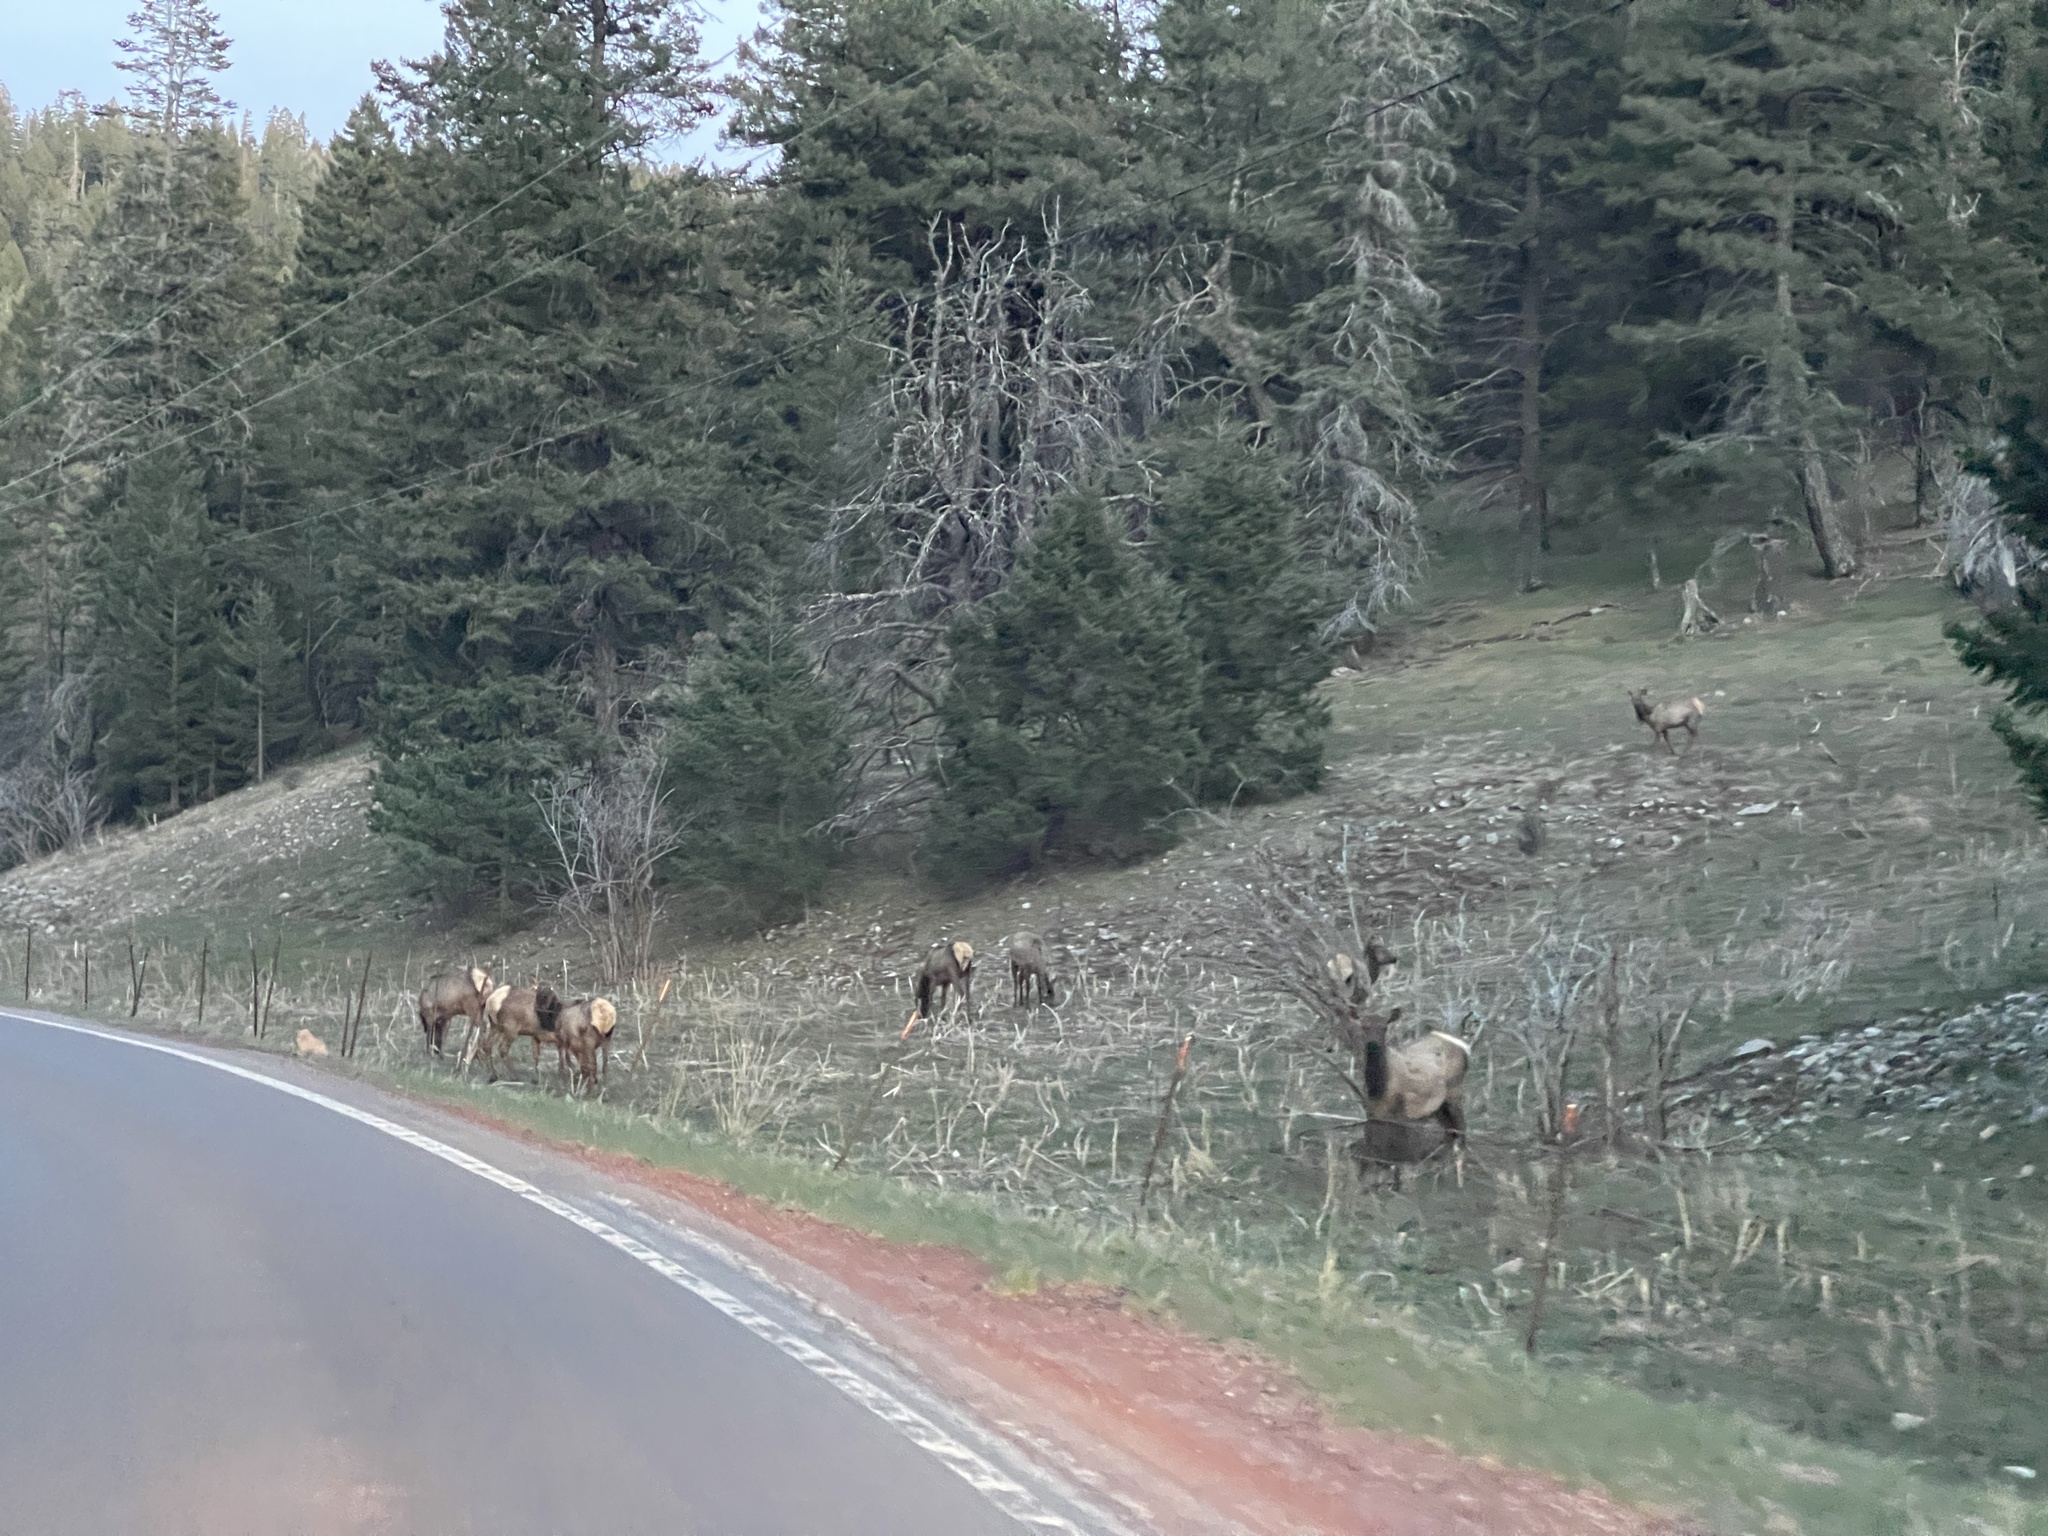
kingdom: Animalia
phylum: Chordata
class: Mammalia
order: Artiodactyla
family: Cervidae
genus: Cervus
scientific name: Cervus elaphus
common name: Red deer
